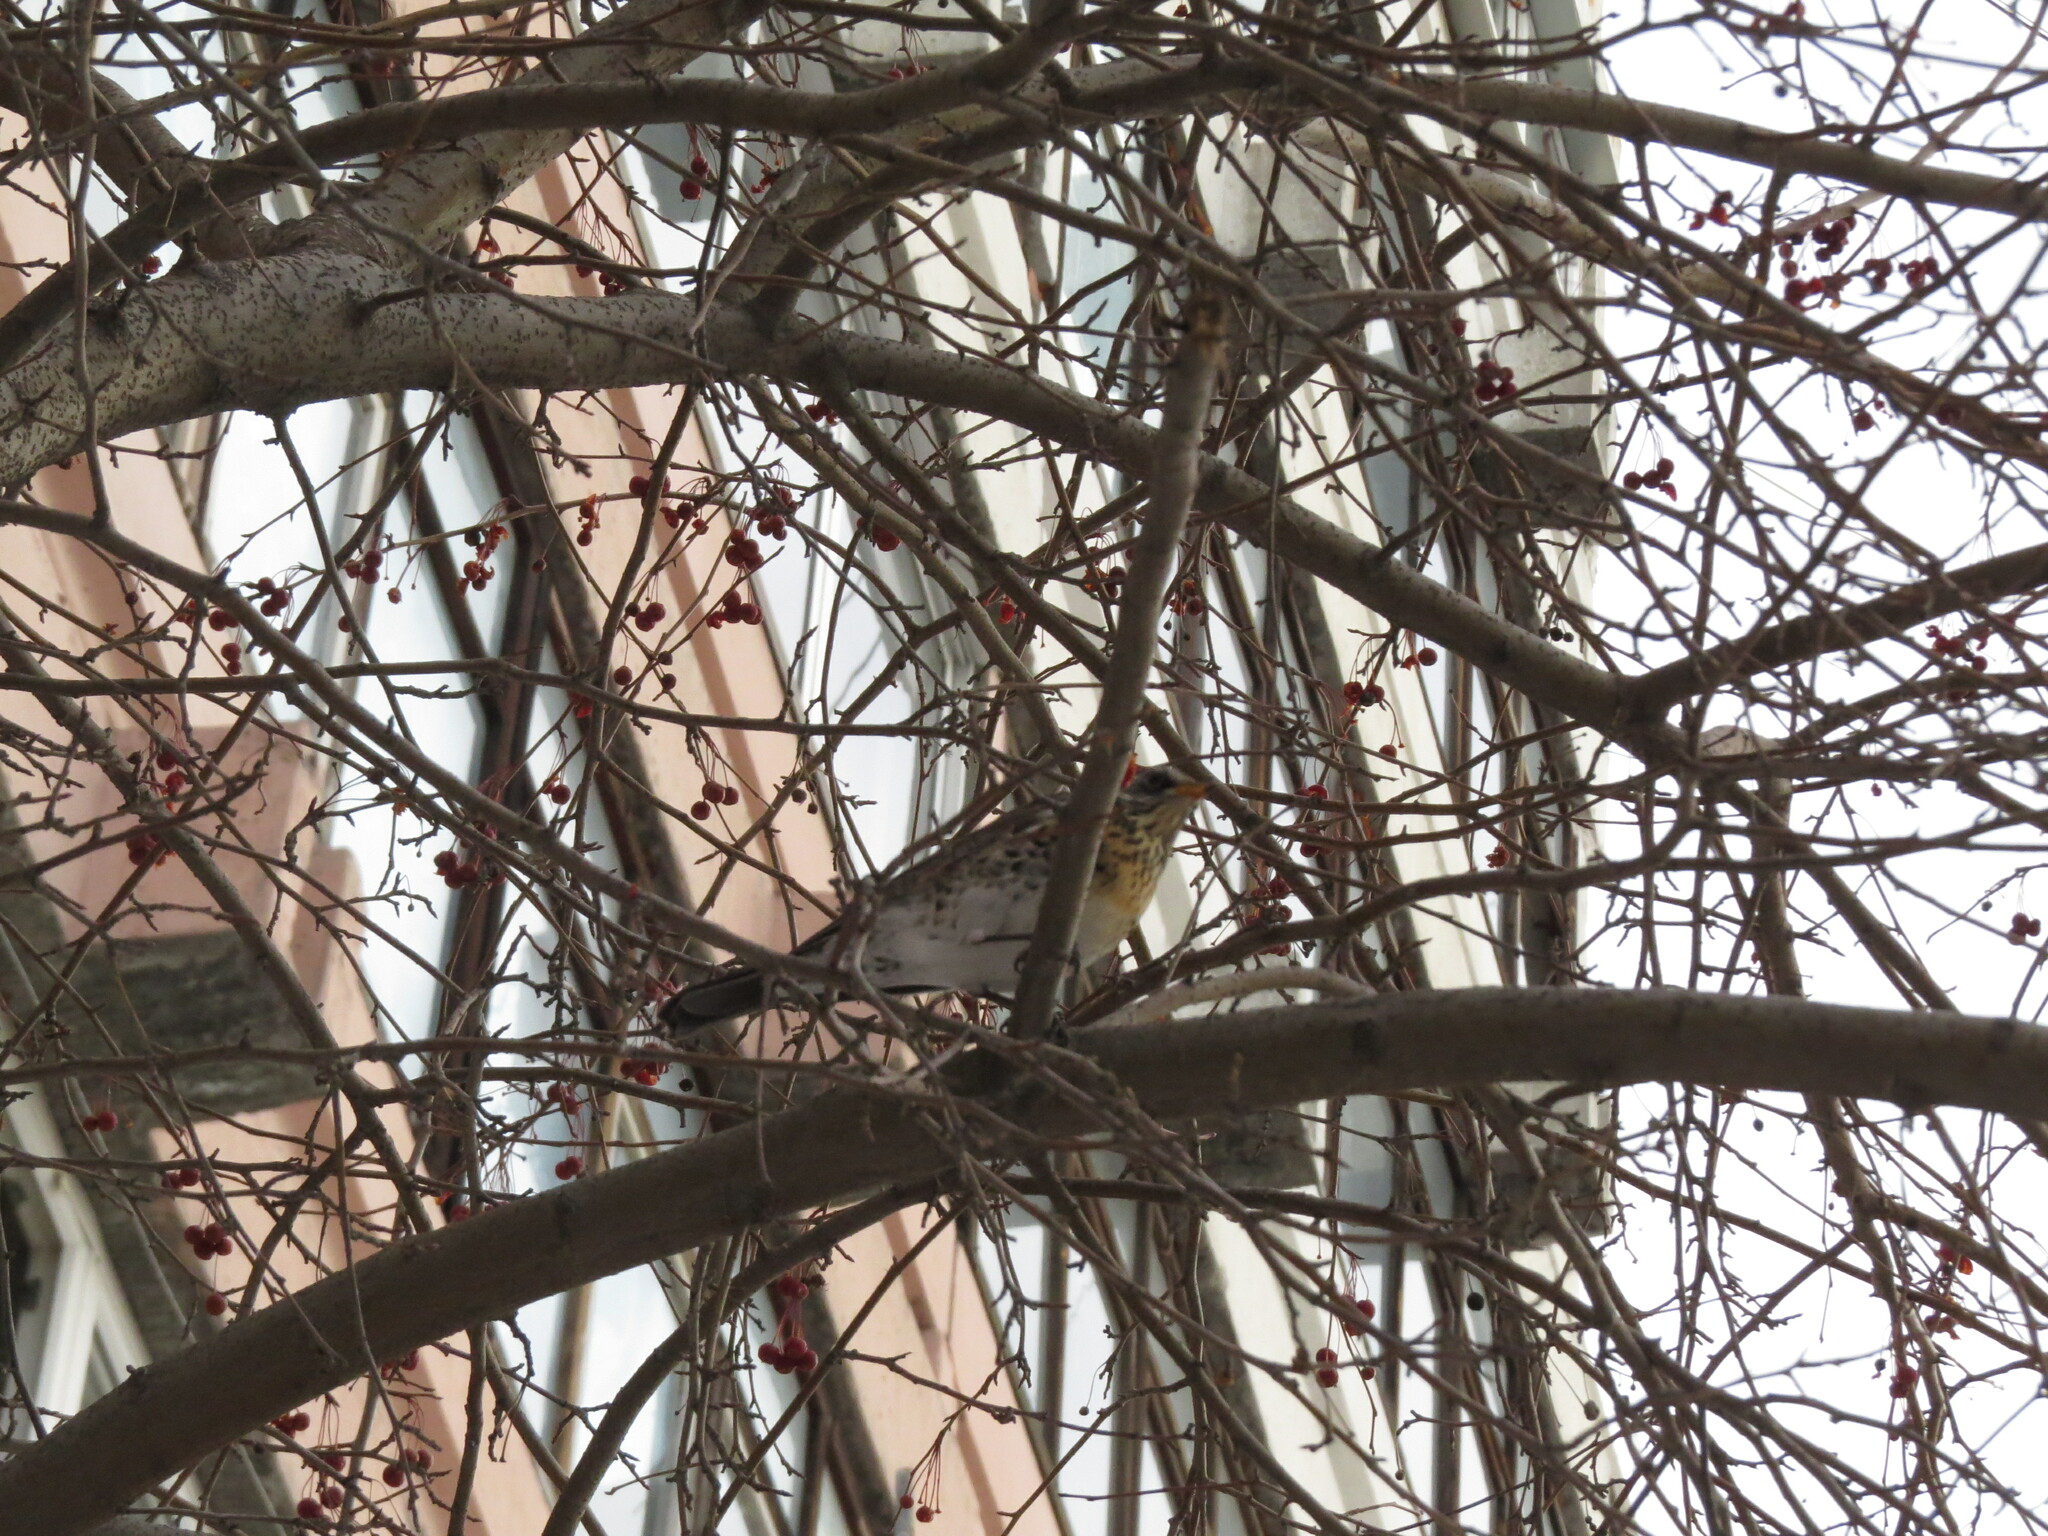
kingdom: Animalia
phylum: Chordata
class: Aves
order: Passeriformes
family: Turdidae
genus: Turdus
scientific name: Turdus pilaris
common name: Fieldfare
